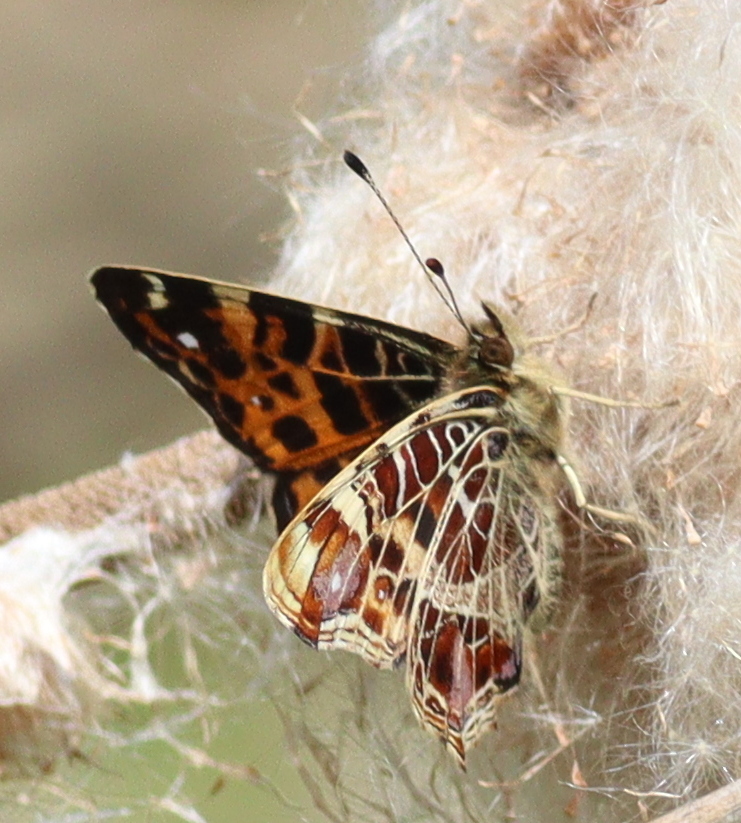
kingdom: Animalia
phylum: Arthropoda
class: Insecta
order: Lepidoptera
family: Nymphalidae
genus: Araschnia
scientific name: Araschnia levana
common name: Map butterfly
